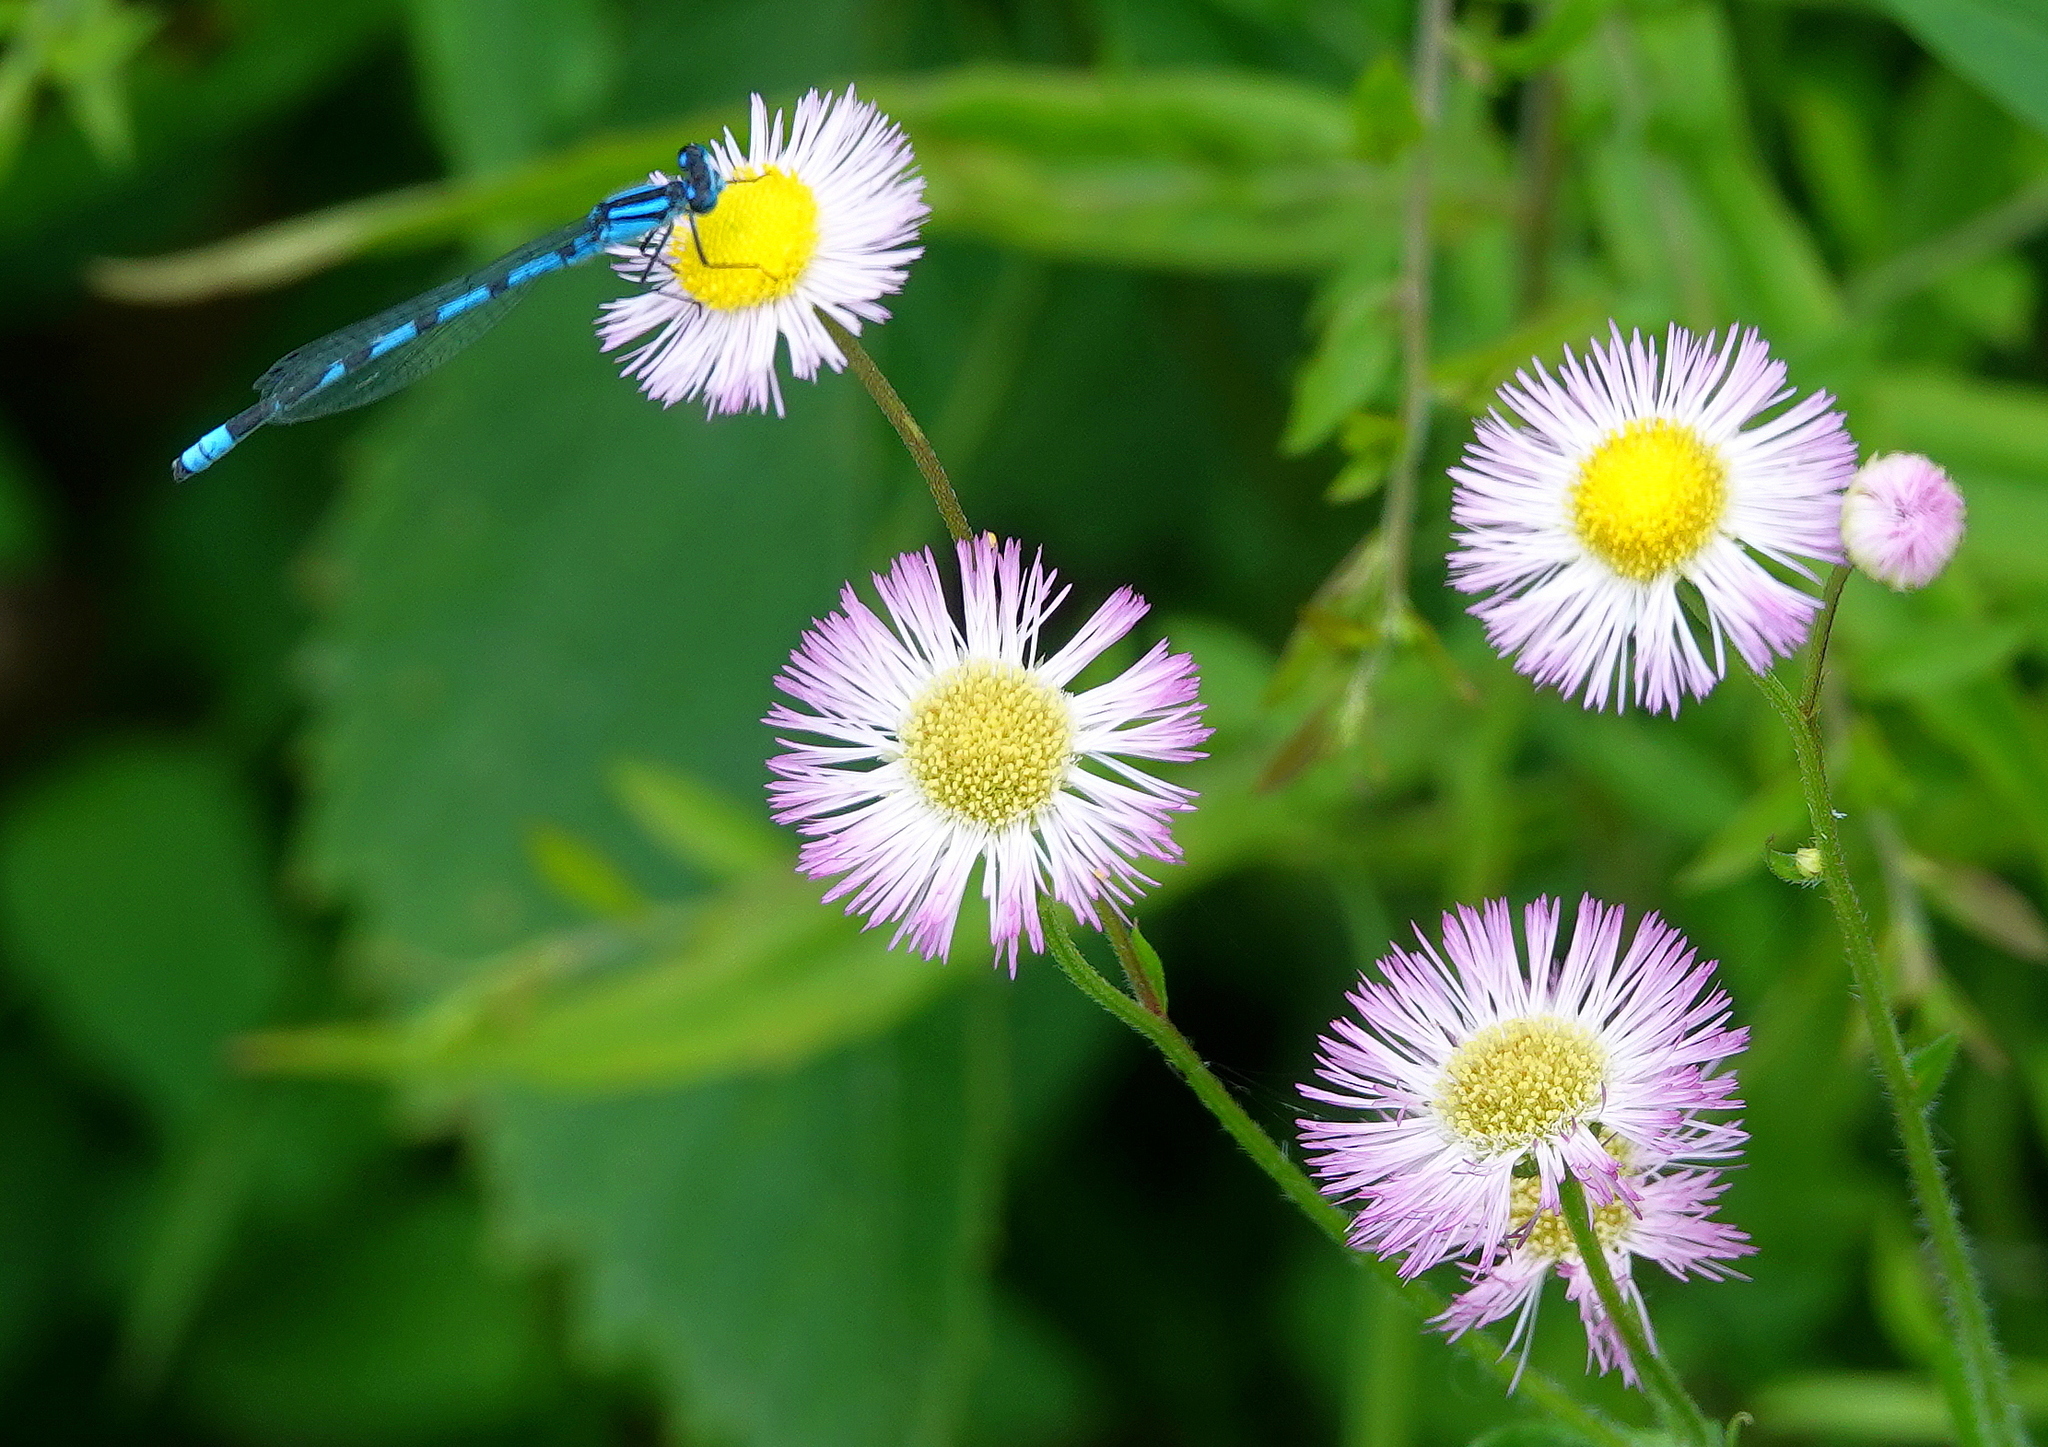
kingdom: Plantae
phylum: Tracheophyta
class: Magnoliopsida
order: Asterales
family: Asteraceae
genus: Erigeron
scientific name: Erigeron philadelphicus
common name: Robin's-plantain
